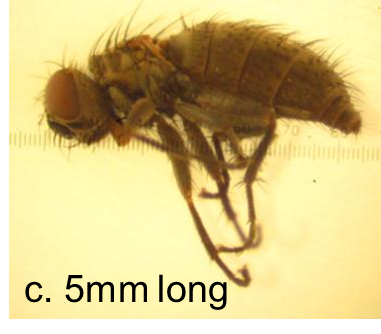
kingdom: Animalia
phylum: Arthropoda
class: Insecta
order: Diptera
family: Muscidae
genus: Paralimnophora
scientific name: Paralimnophora
